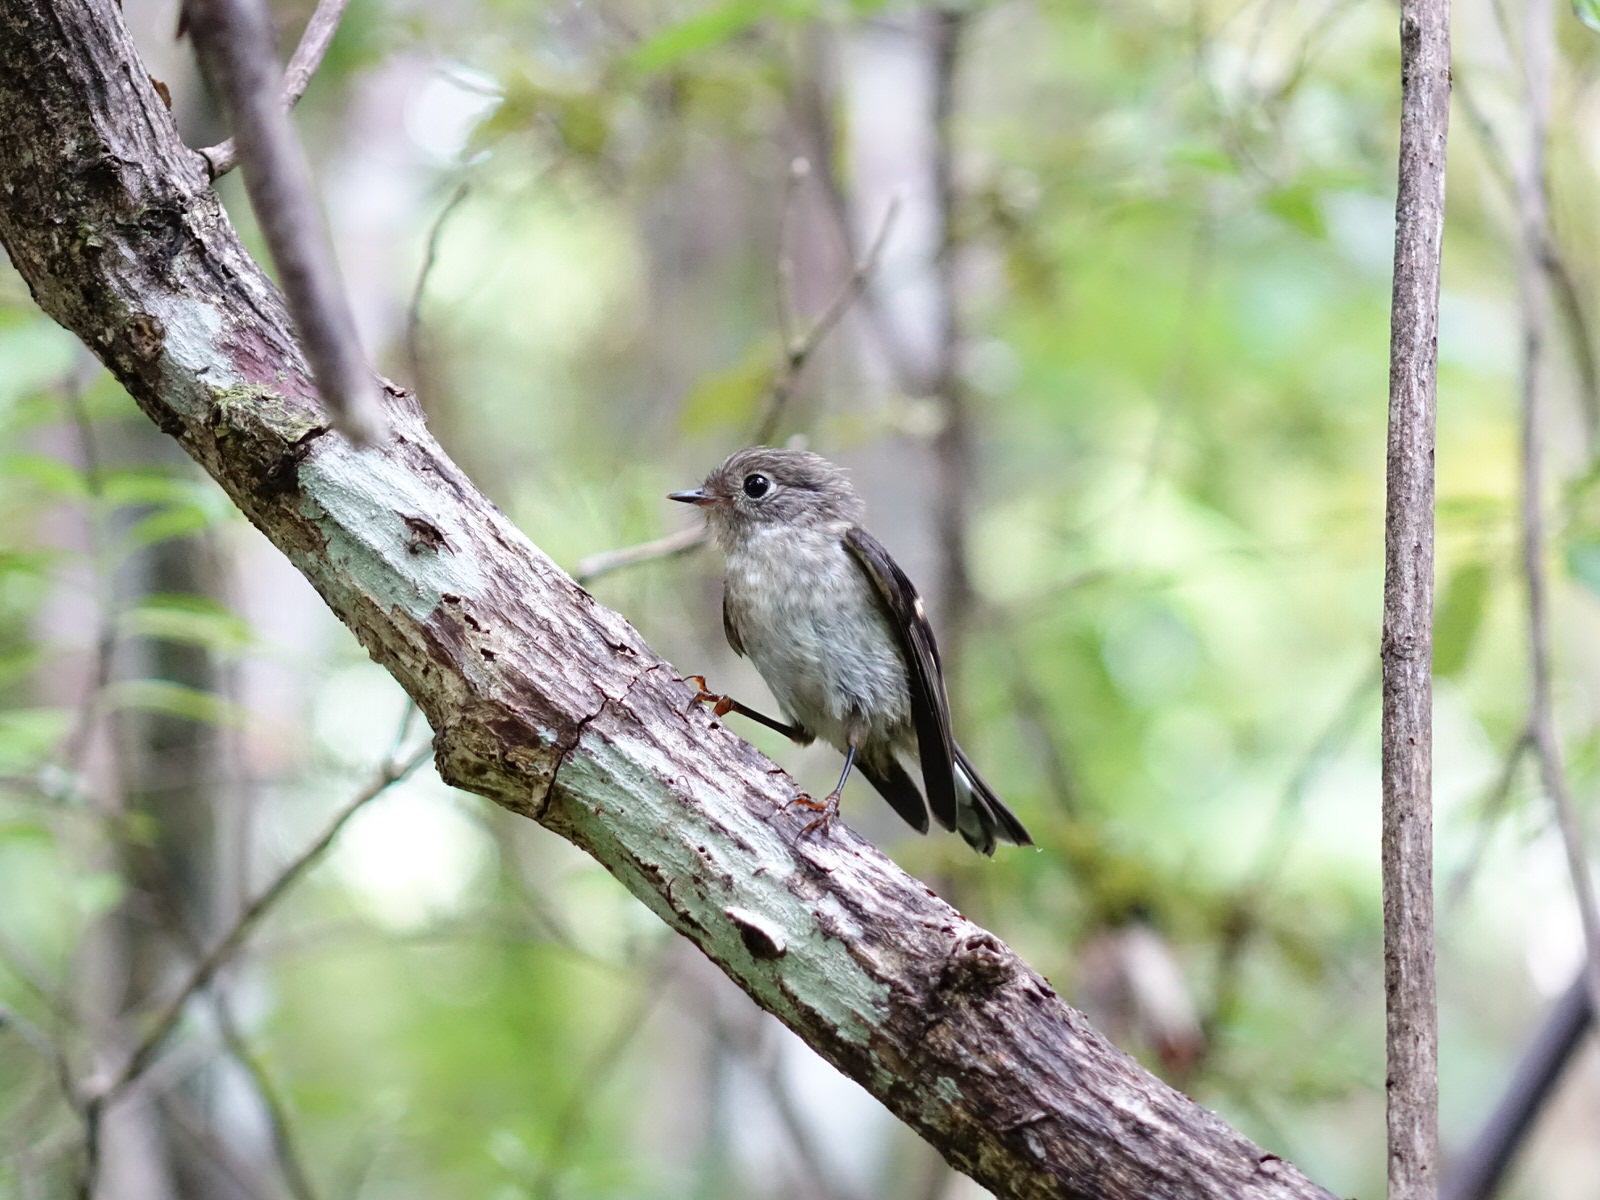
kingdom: Animalia
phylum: Chordata
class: Aves
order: Passeriformes
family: Petroicidae
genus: Petroica
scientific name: Petroica macrocephala
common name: Tomtit
